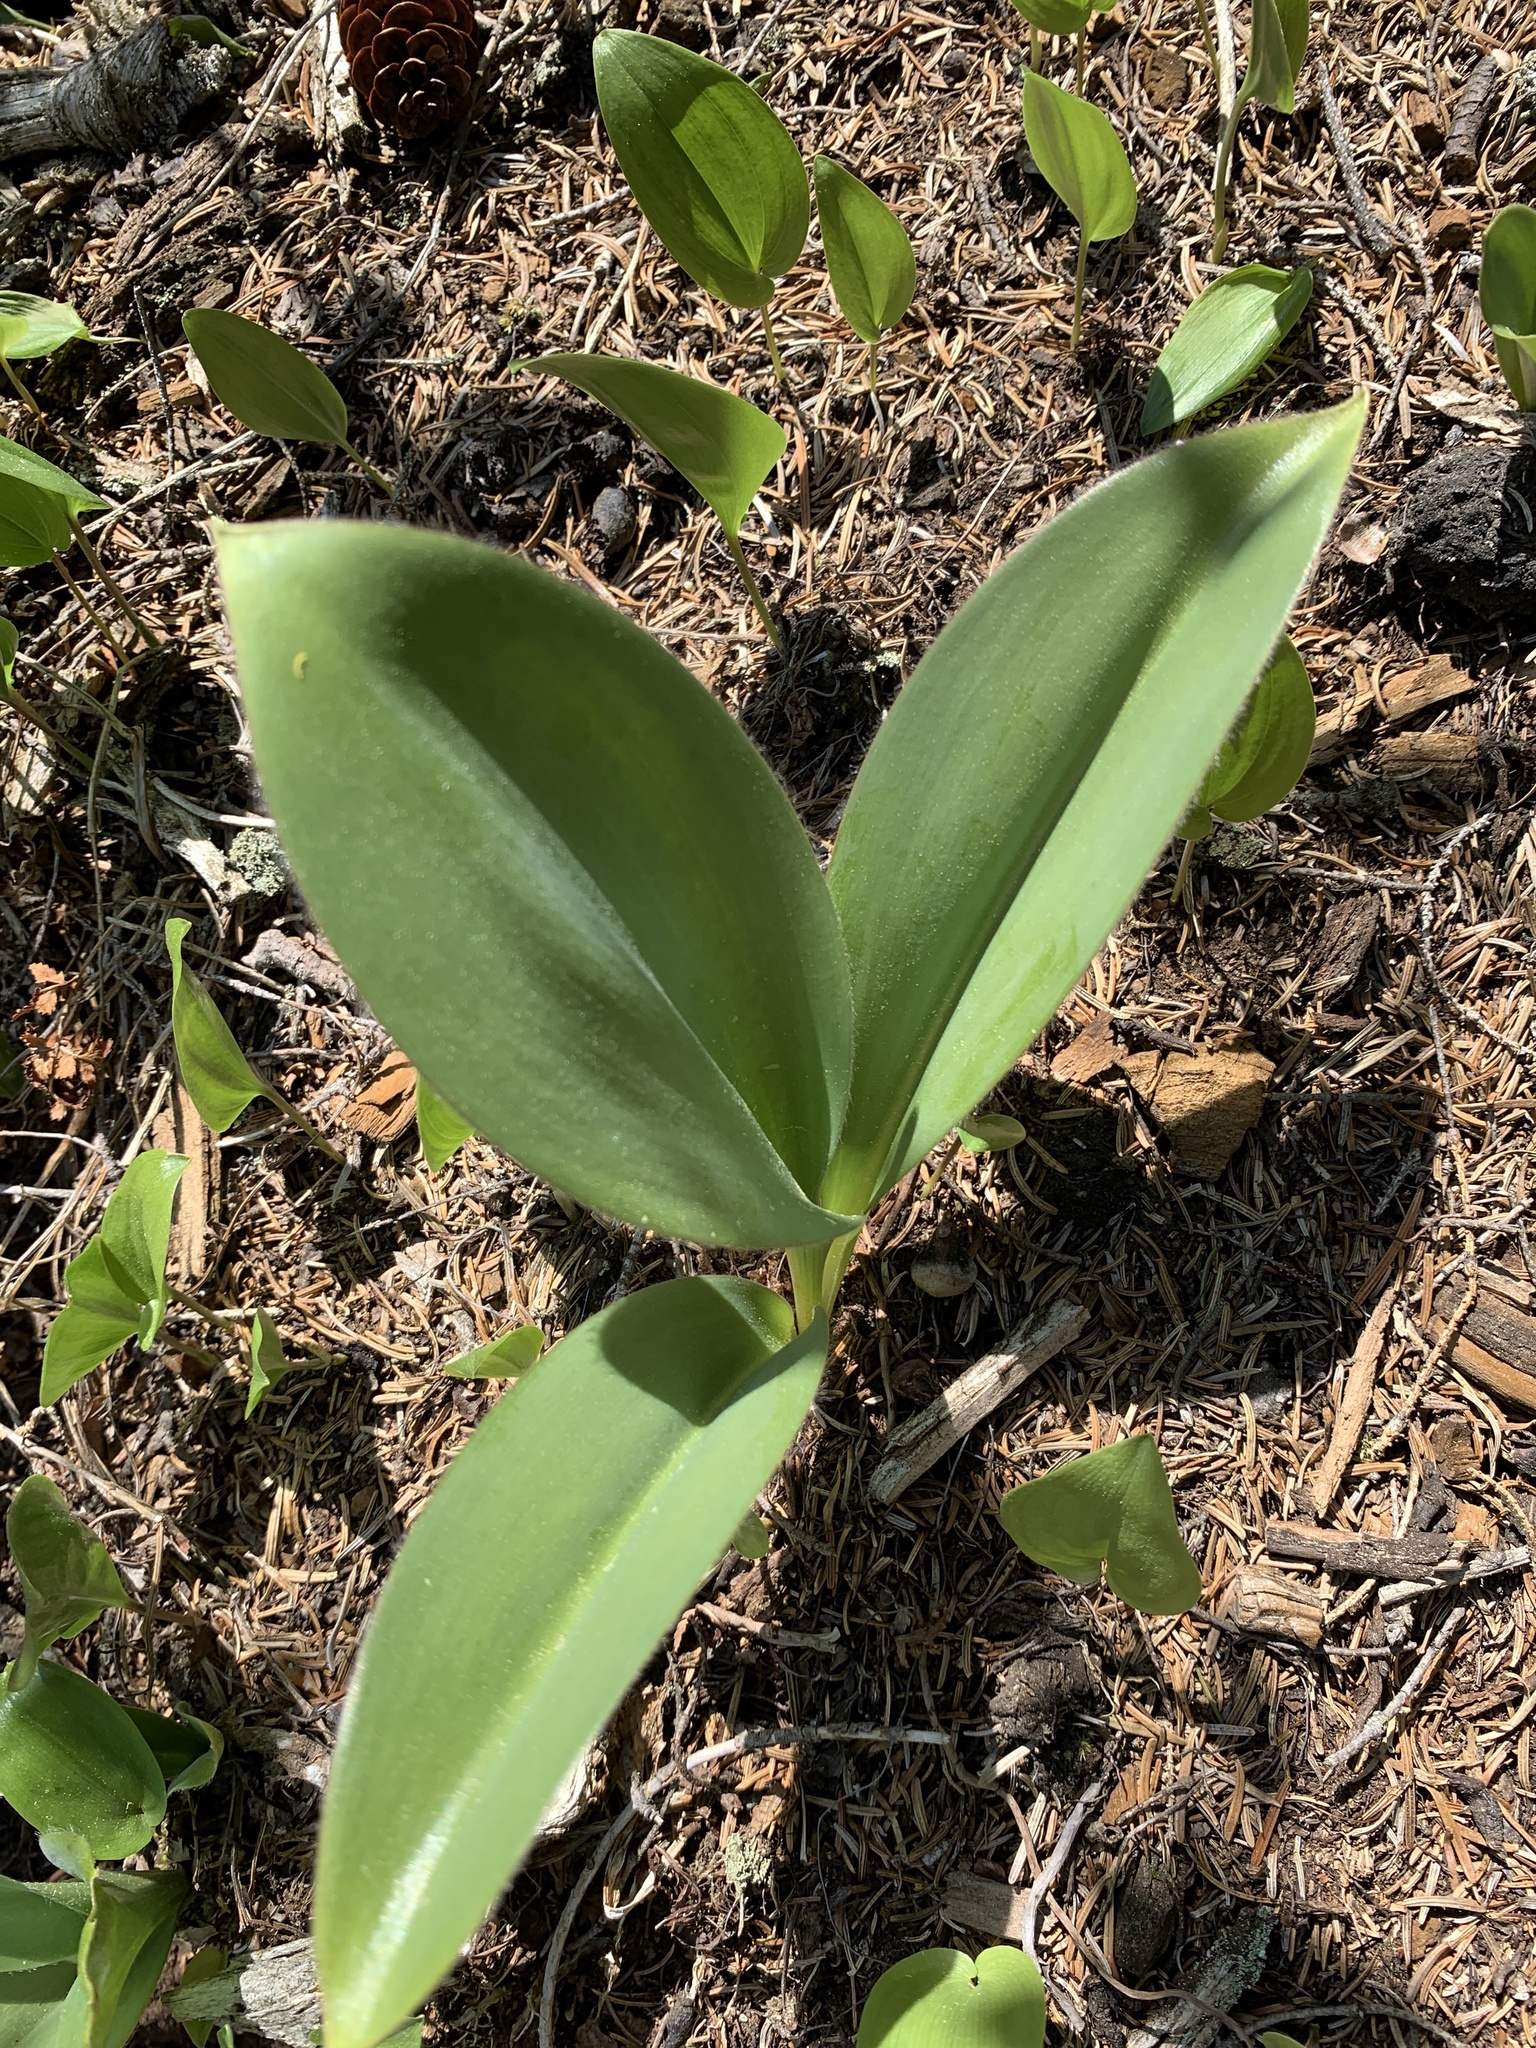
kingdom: Plantae
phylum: Tracheophyta
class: Liliopsida
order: Liliales
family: Liliaceae
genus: Clintonia
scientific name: Clintonia borealis
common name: Yellow clintonia
